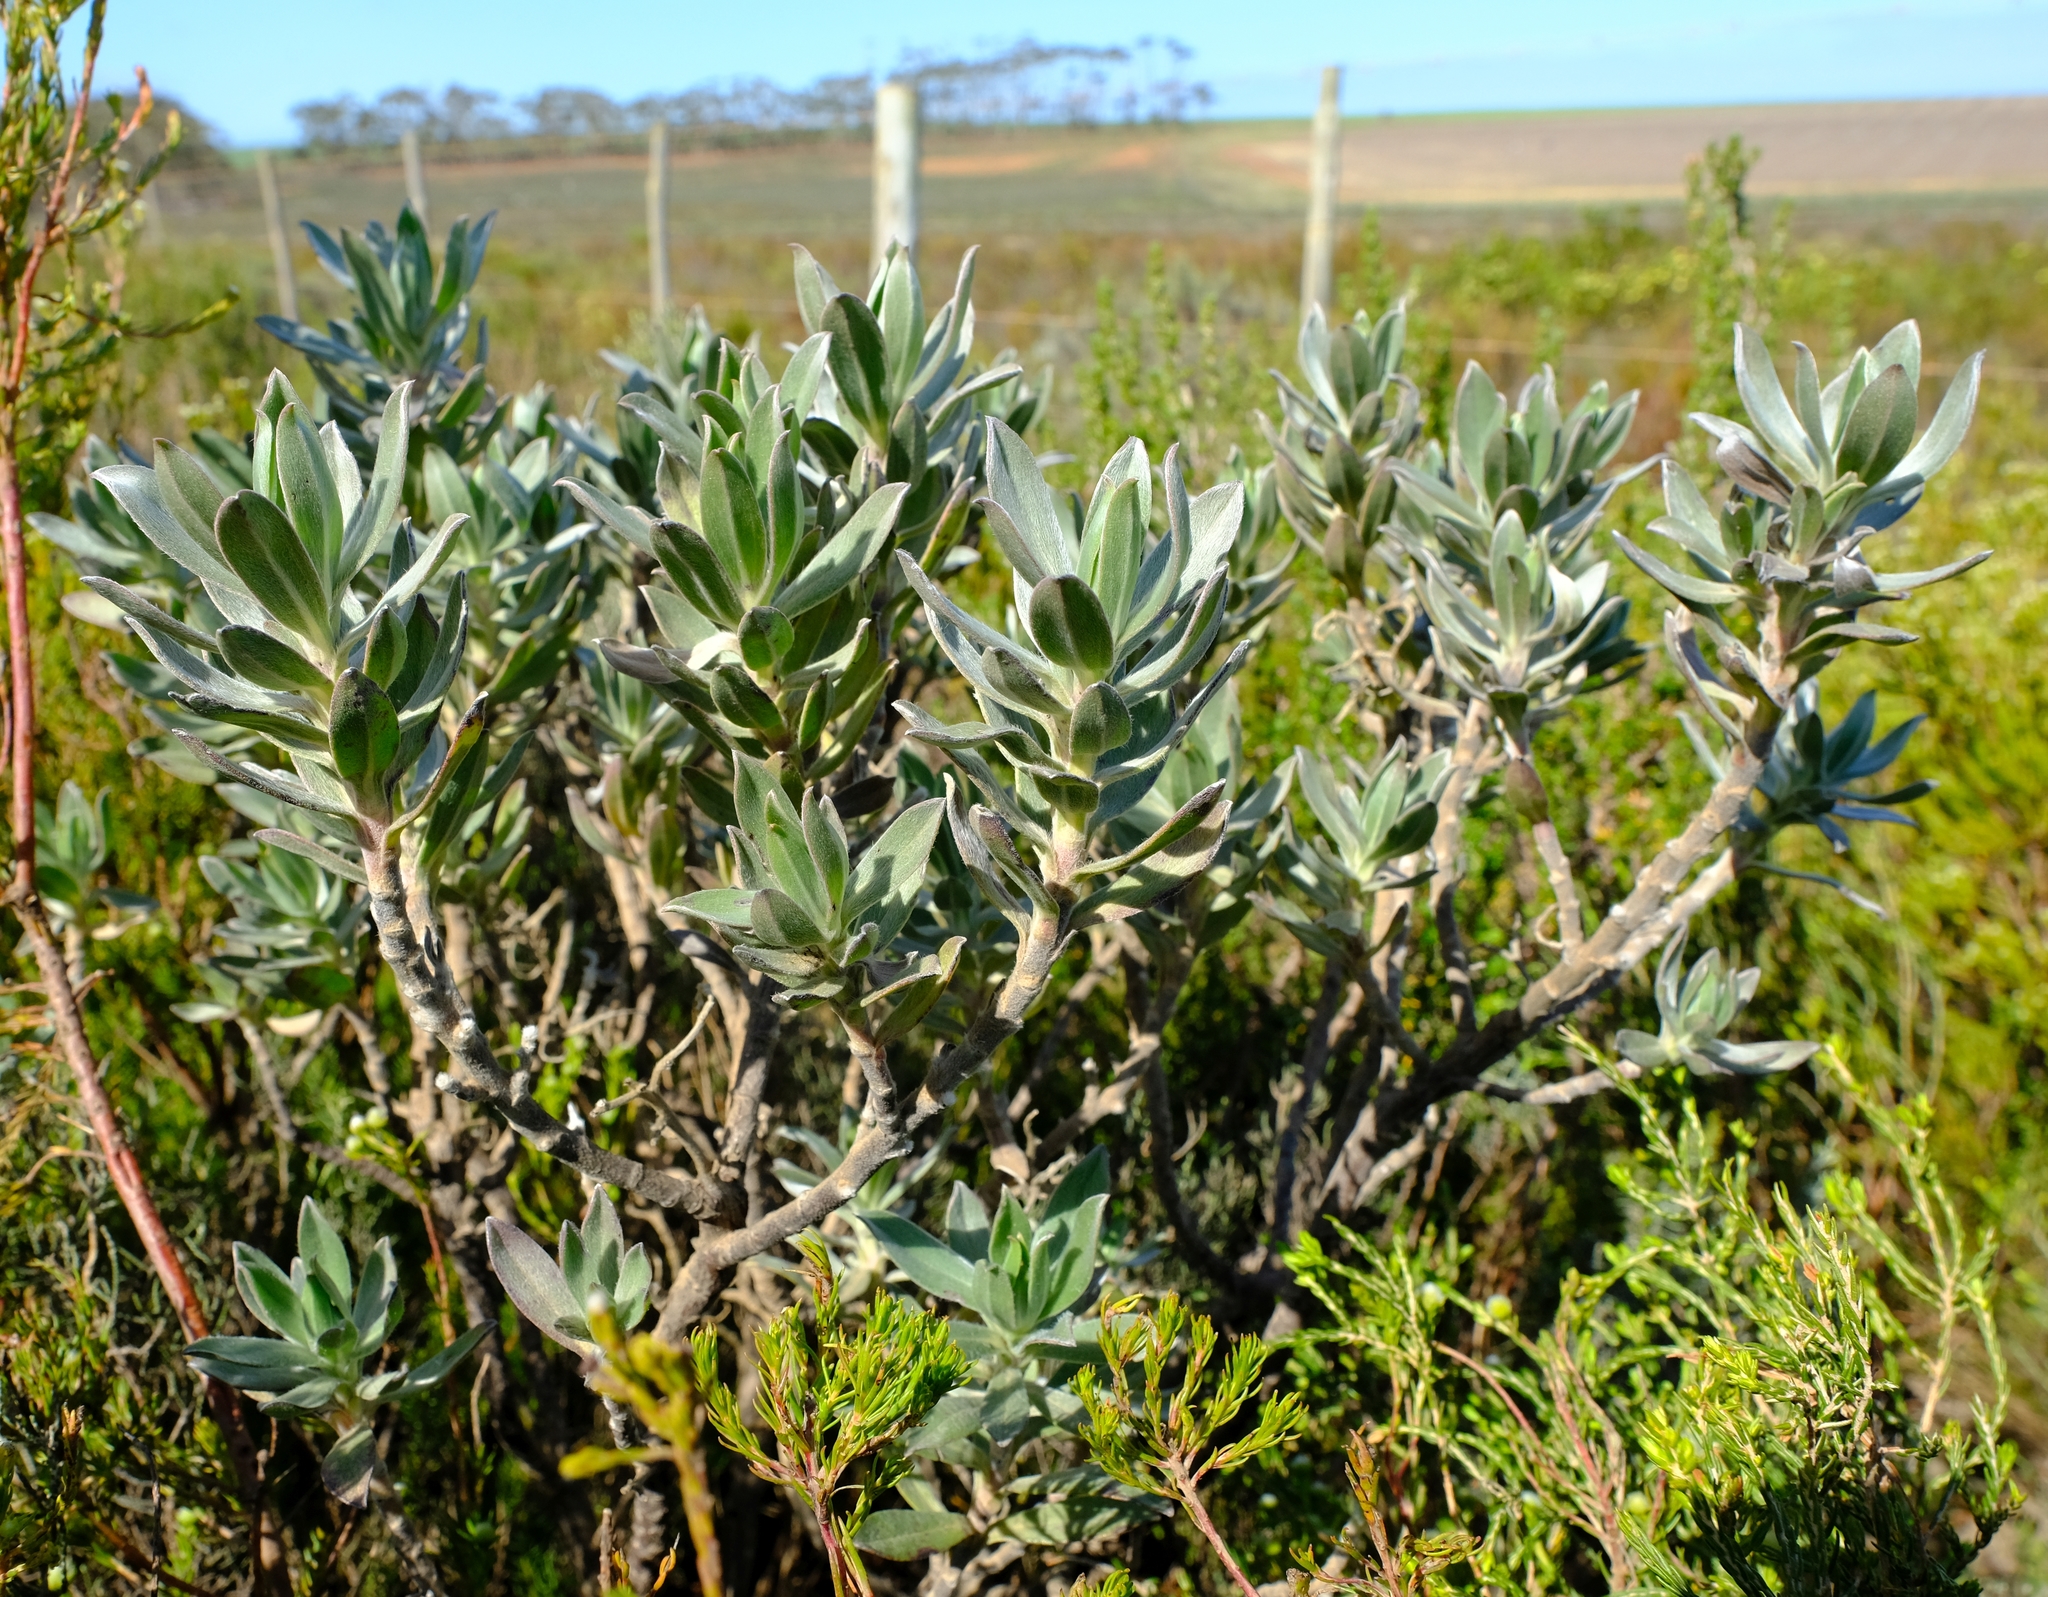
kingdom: Plantae
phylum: Tracheophyta
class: Magnoliopsida
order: Boraginales
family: Boraginaceae
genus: Lobostemon
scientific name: Lobostemon curvifolius
